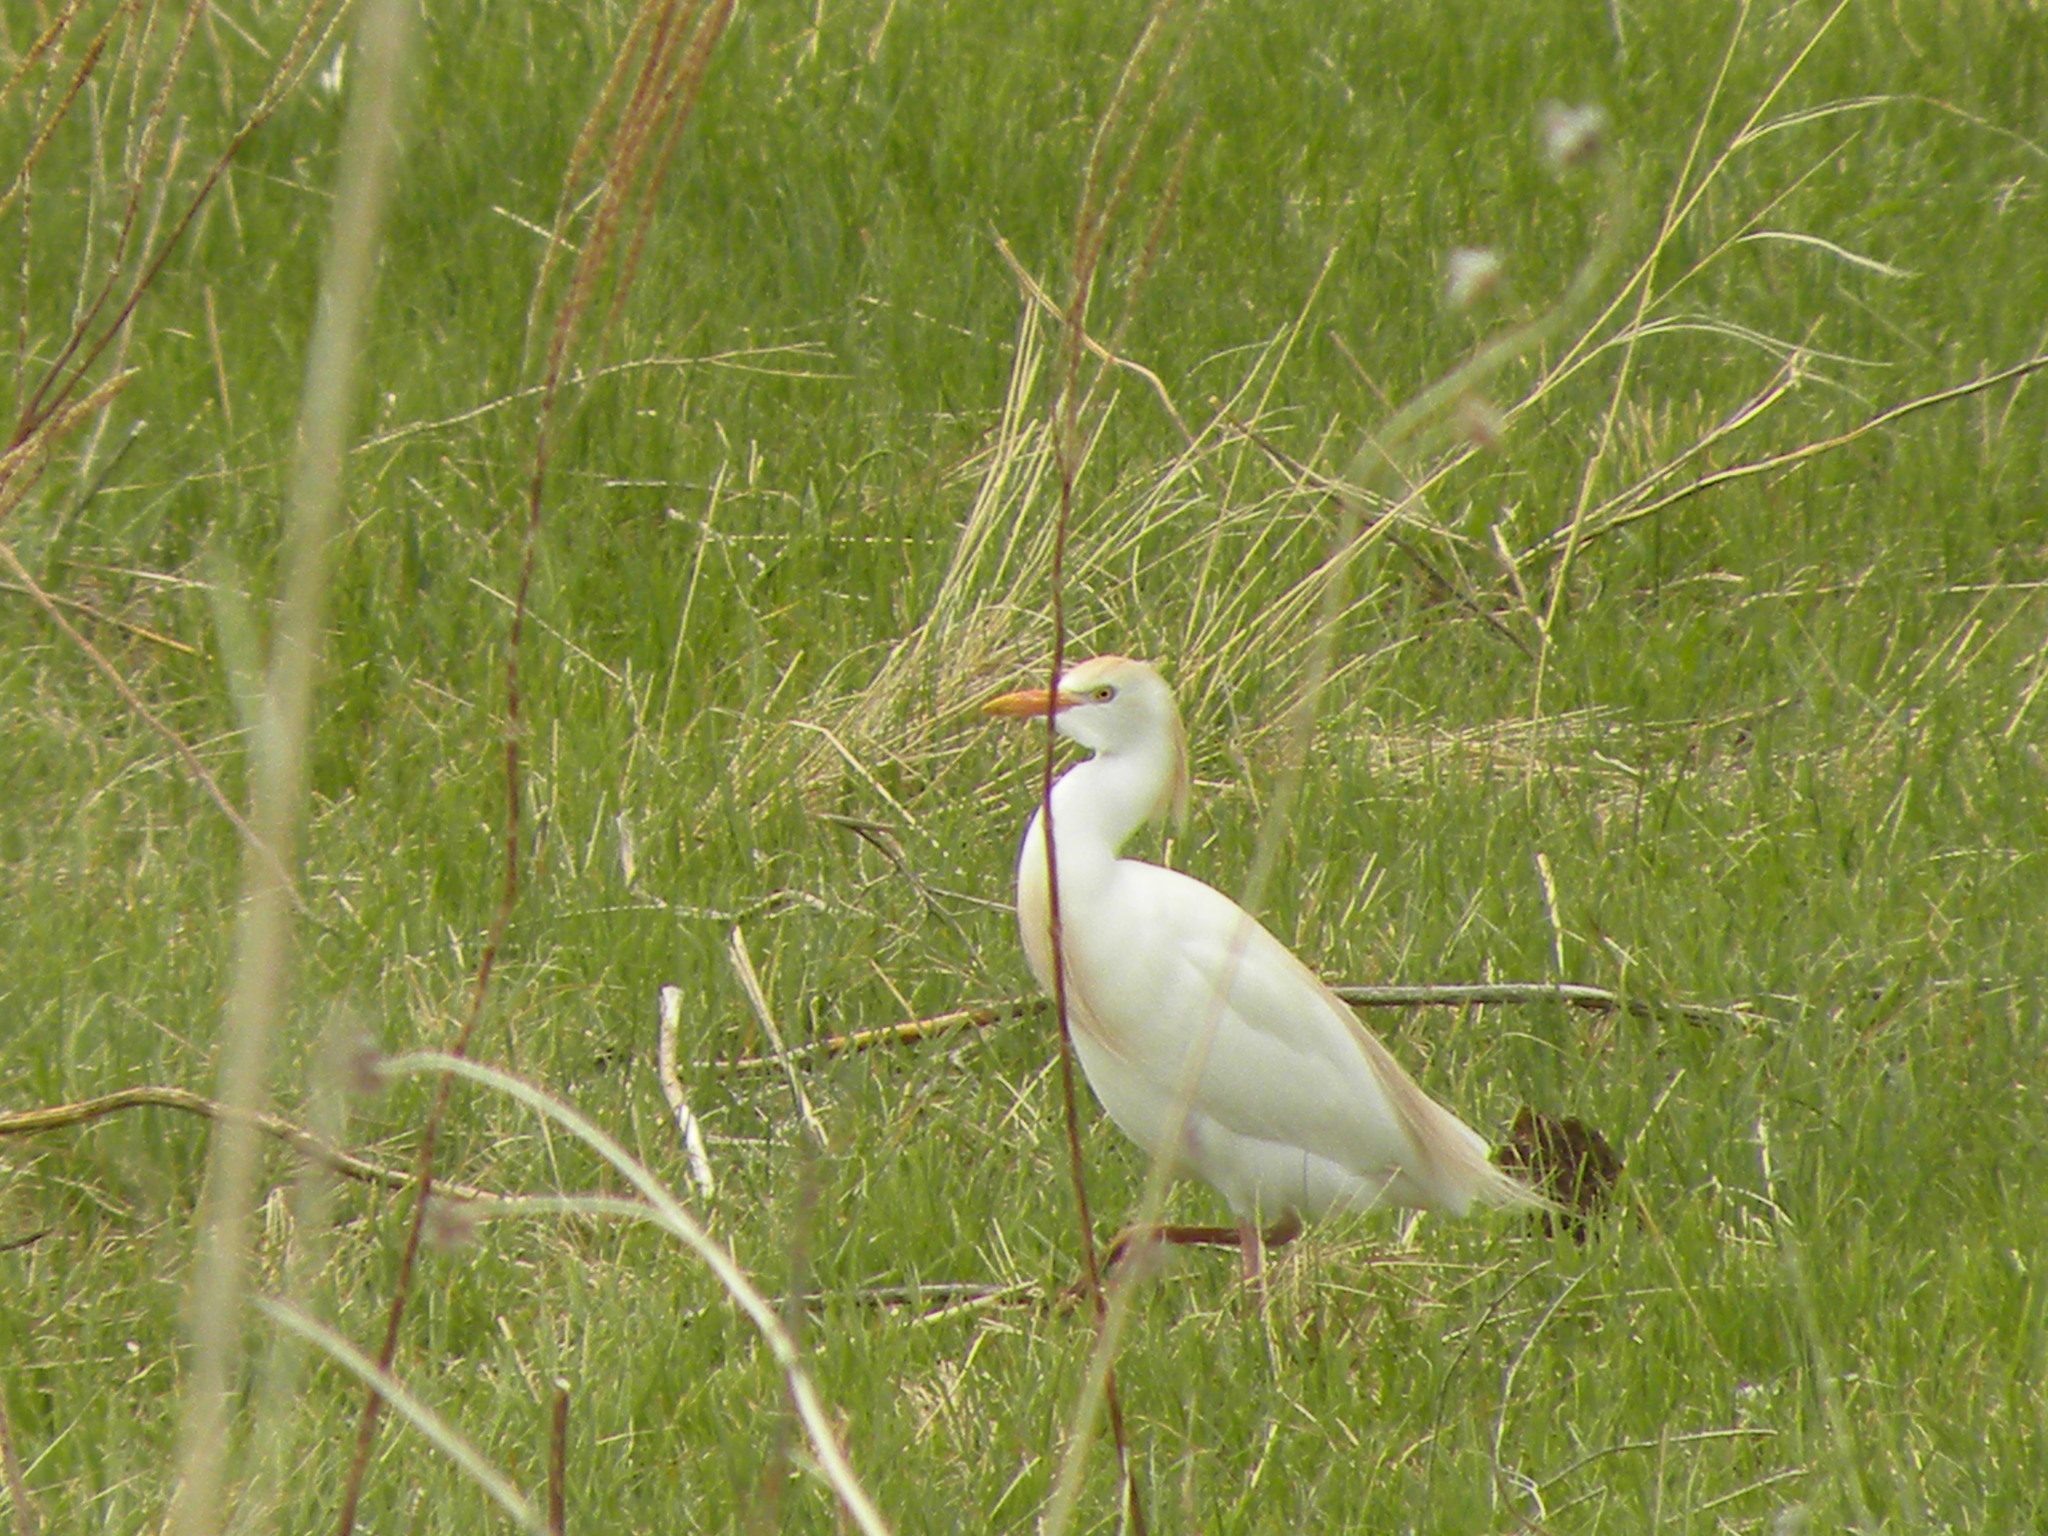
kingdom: Animalia
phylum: Chordata
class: Aves
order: Pelecaniformes
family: Ardeidae
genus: Bubulcus
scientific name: Bubulcus ibis
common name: Cattle egret
